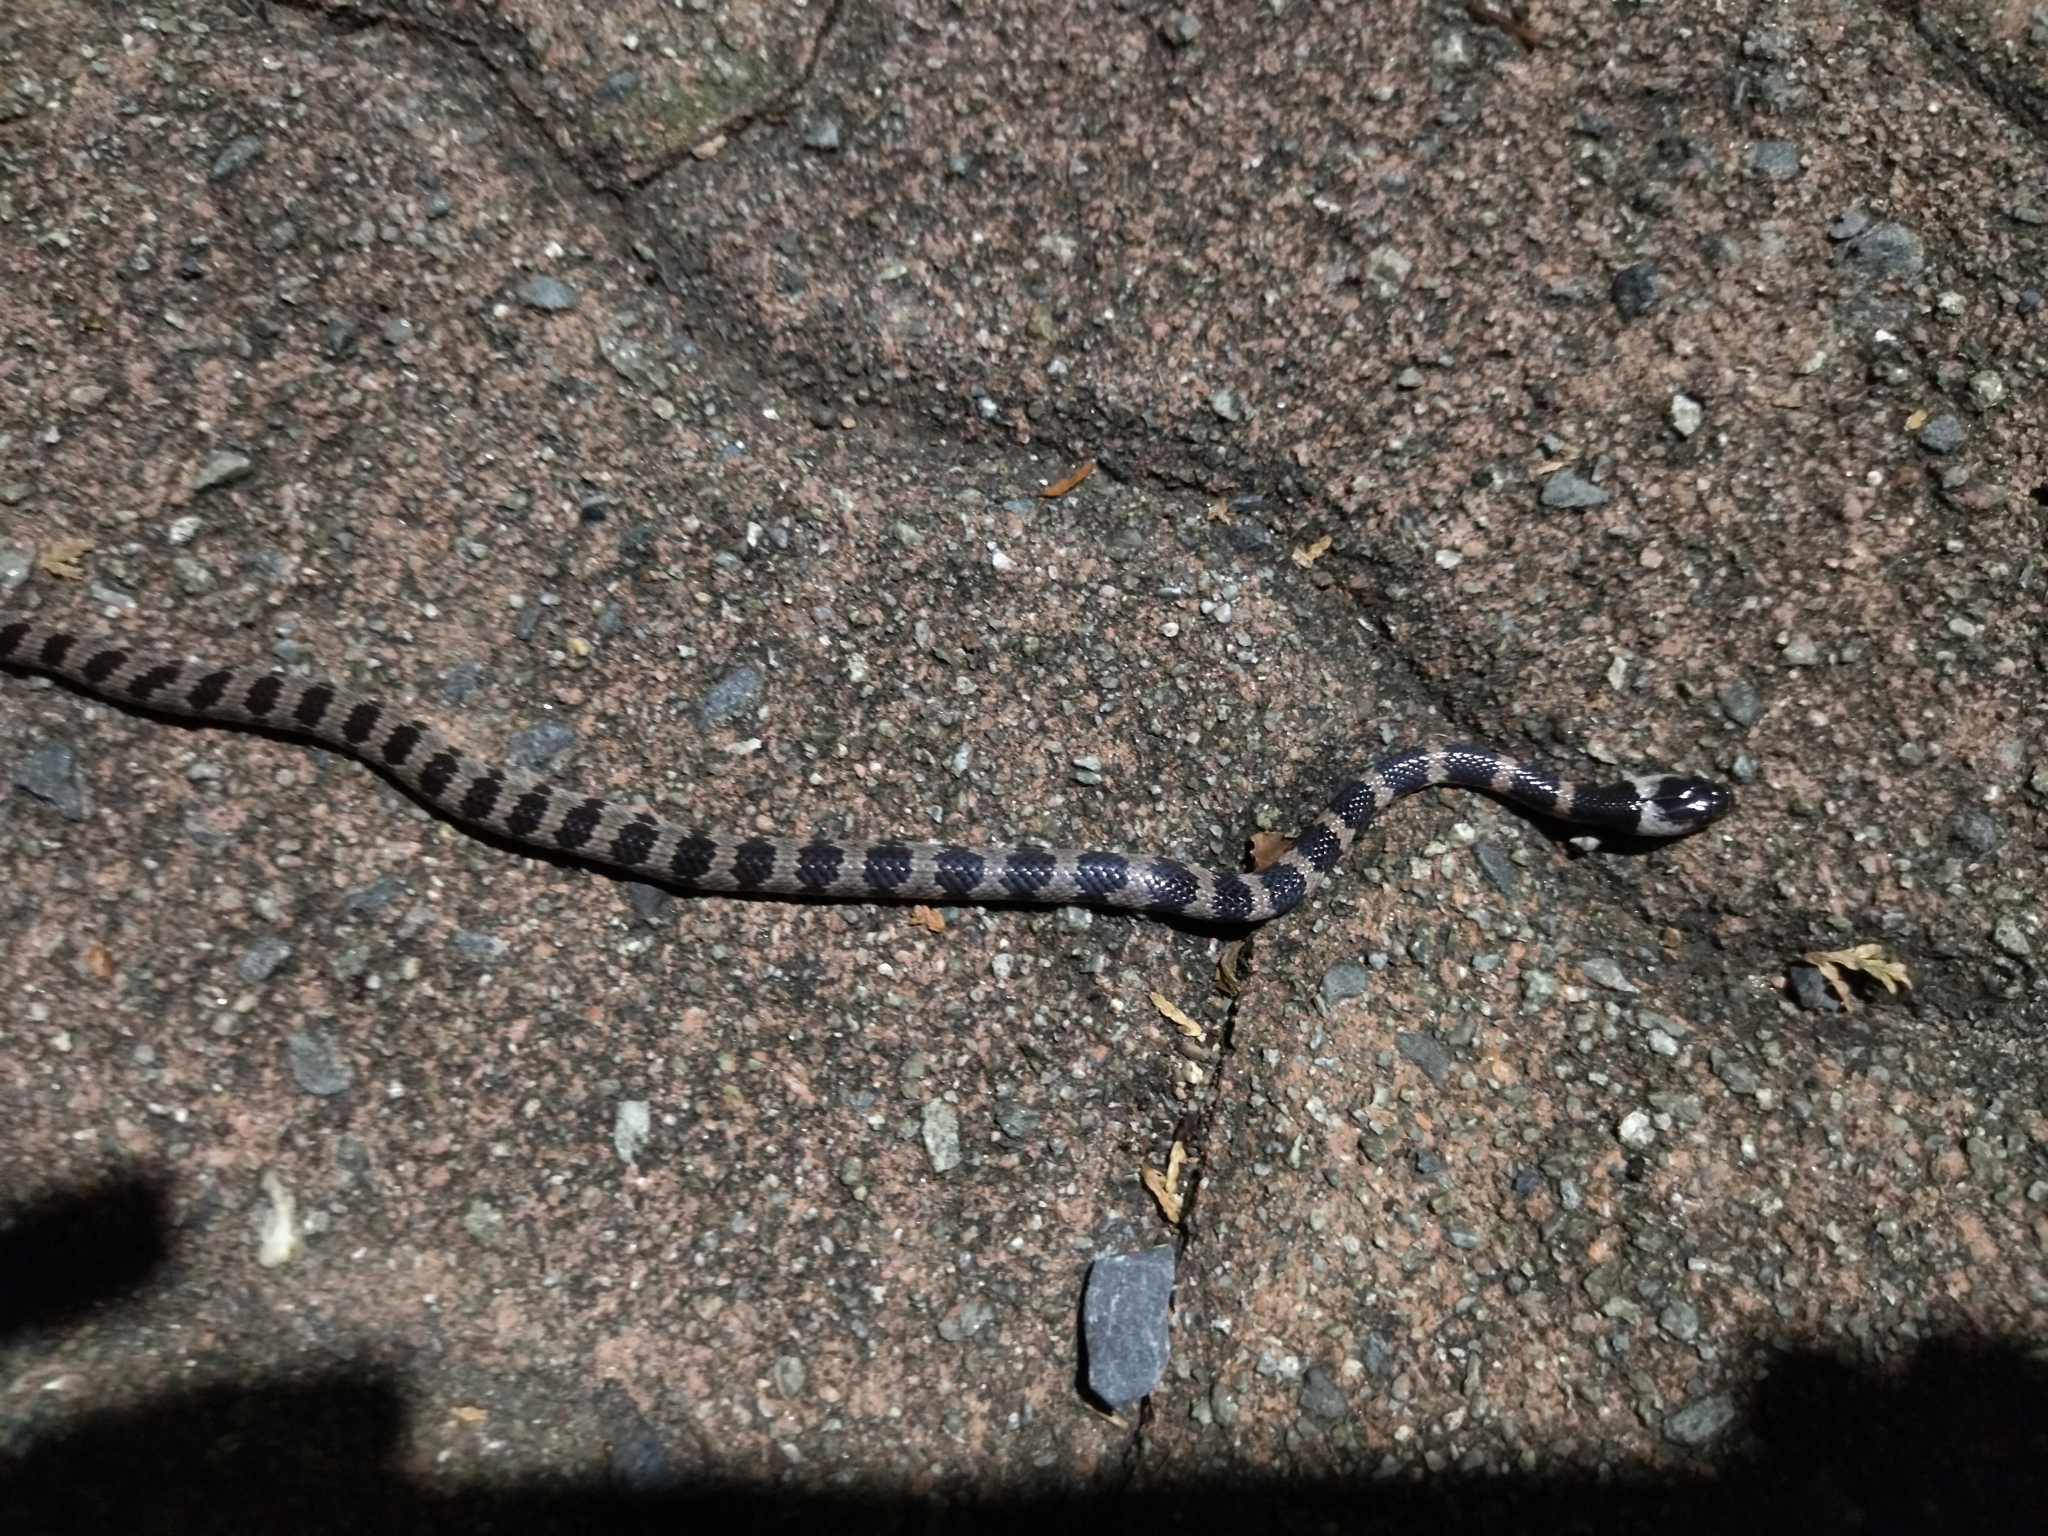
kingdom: Animalia
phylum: Chordata
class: Squamata
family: Colubridae
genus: Lycodon
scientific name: Lycodon orientalis
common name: Oriental odd-tooth snake
